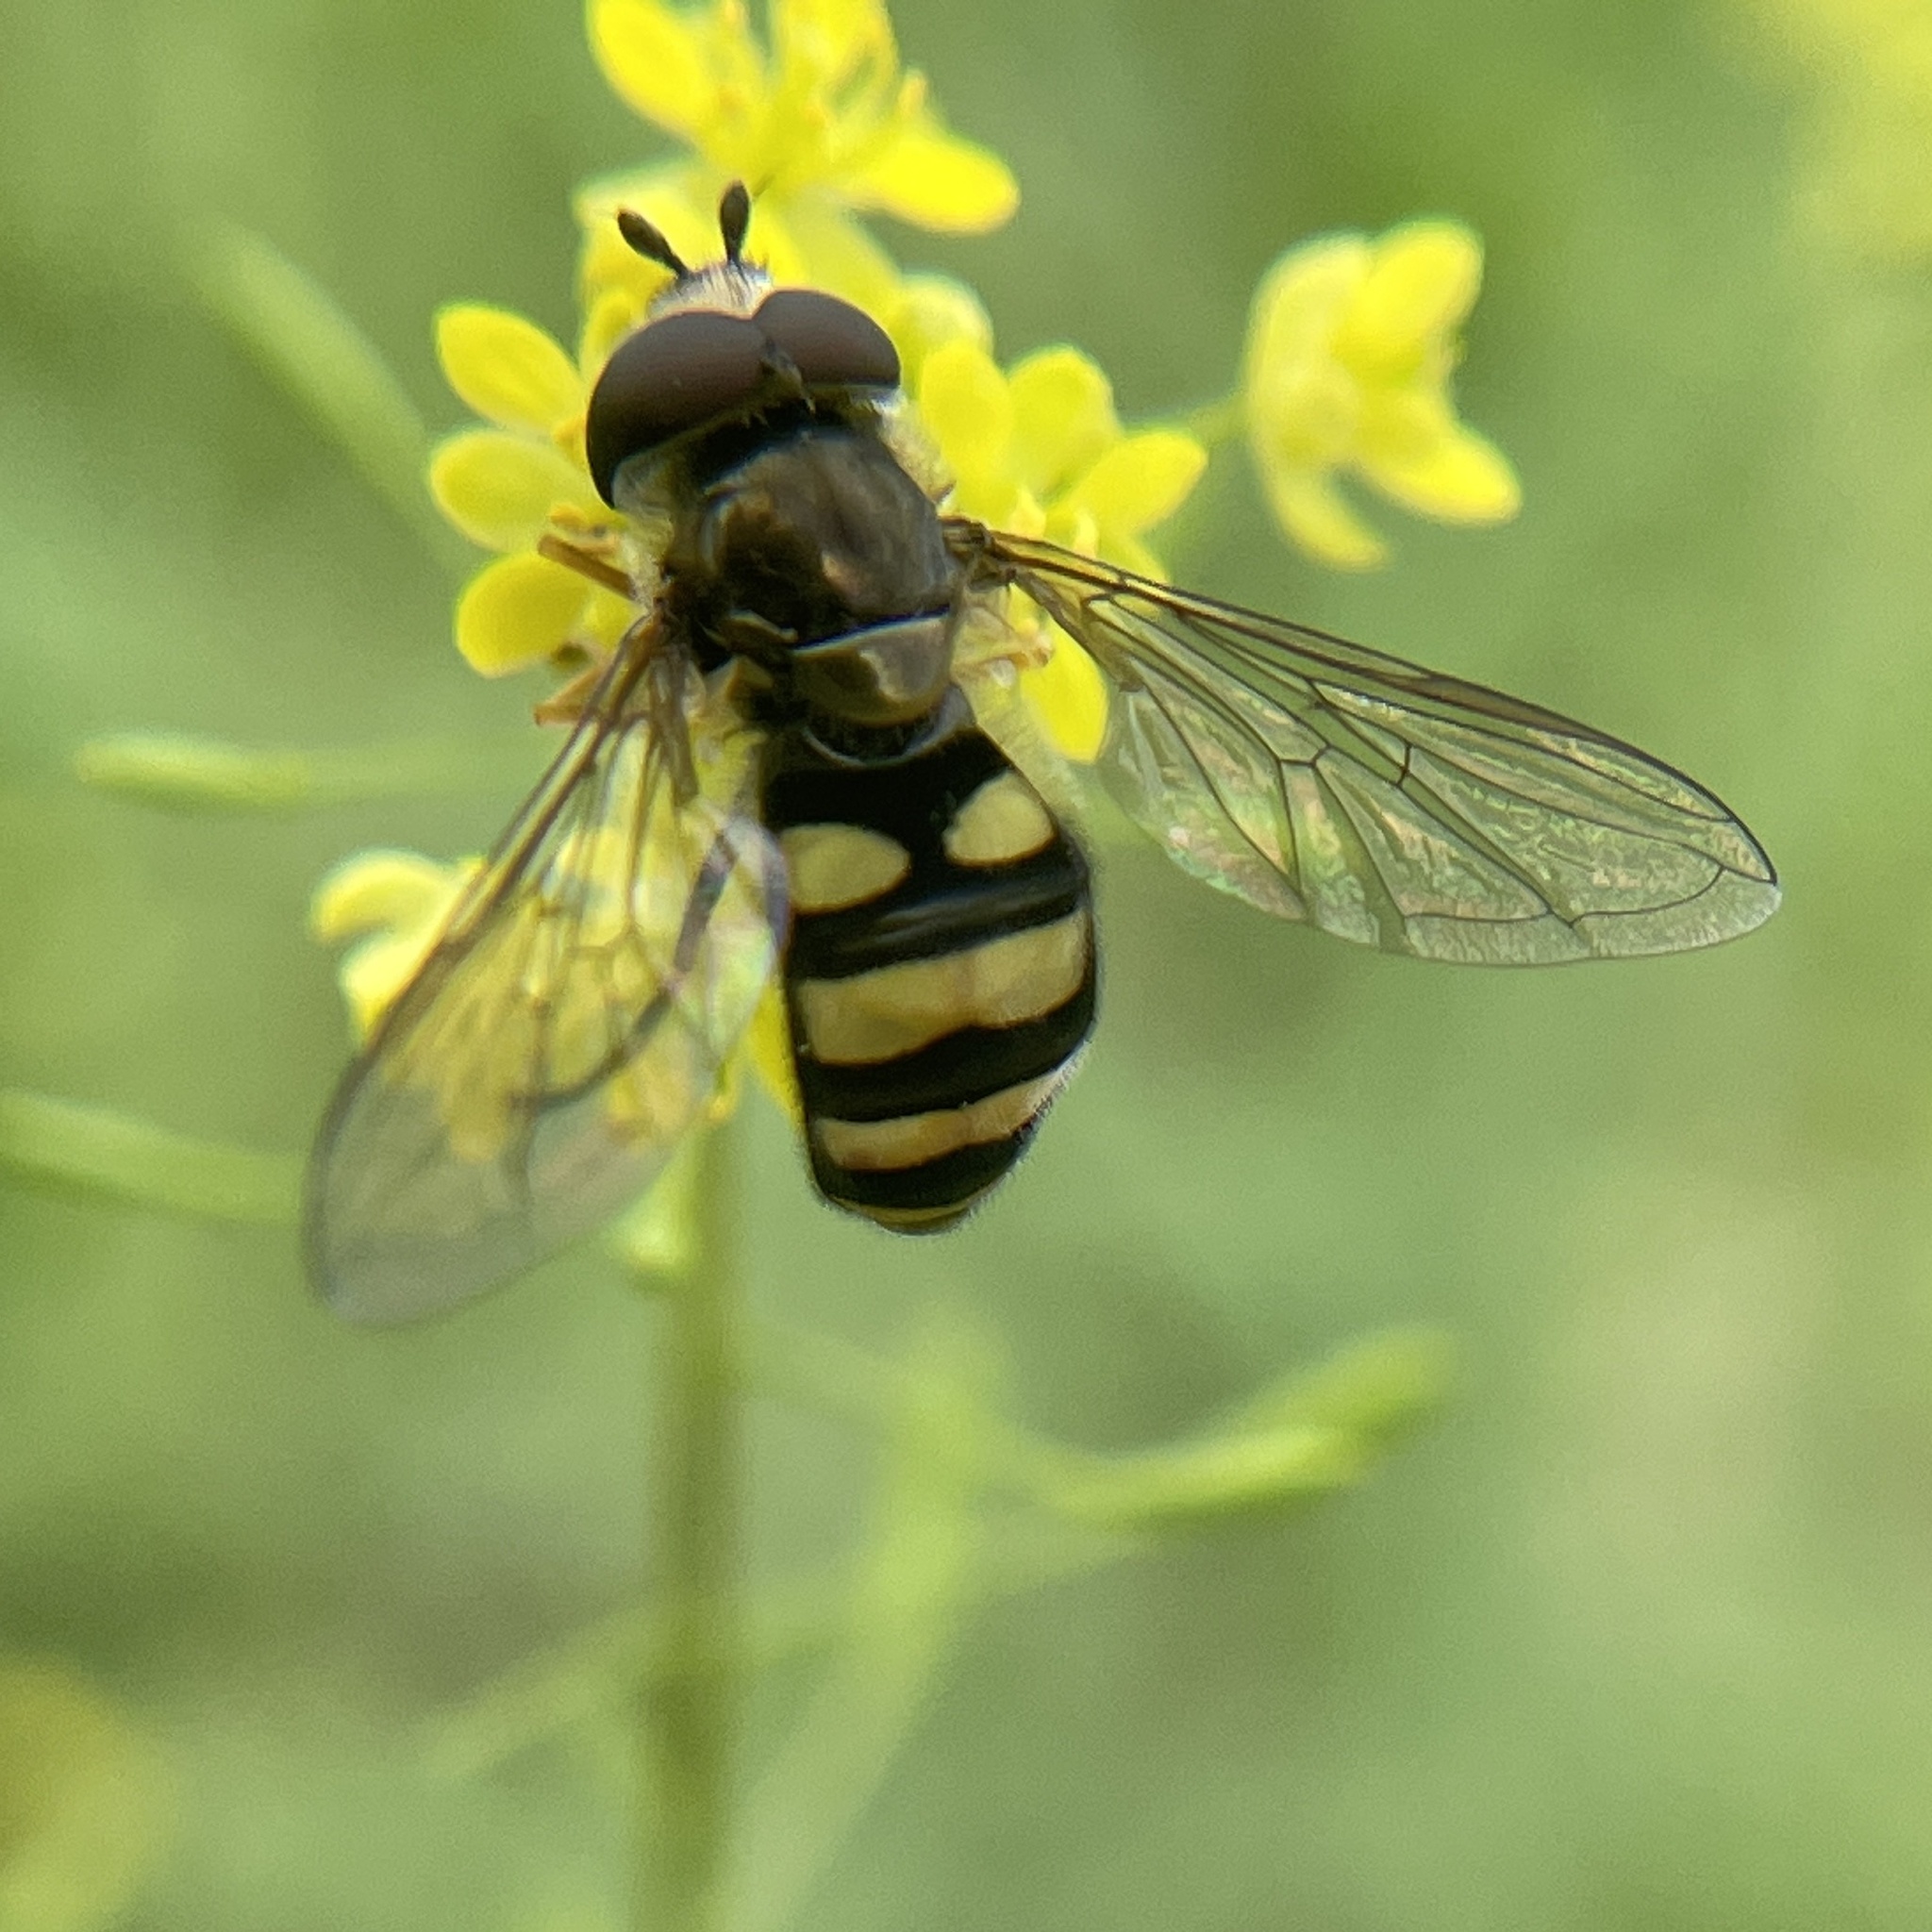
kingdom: Animalia
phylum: Arthropoda
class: Insecta
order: Diptera
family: Syrphidae
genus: Eupeodes
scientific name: Eupeodes
